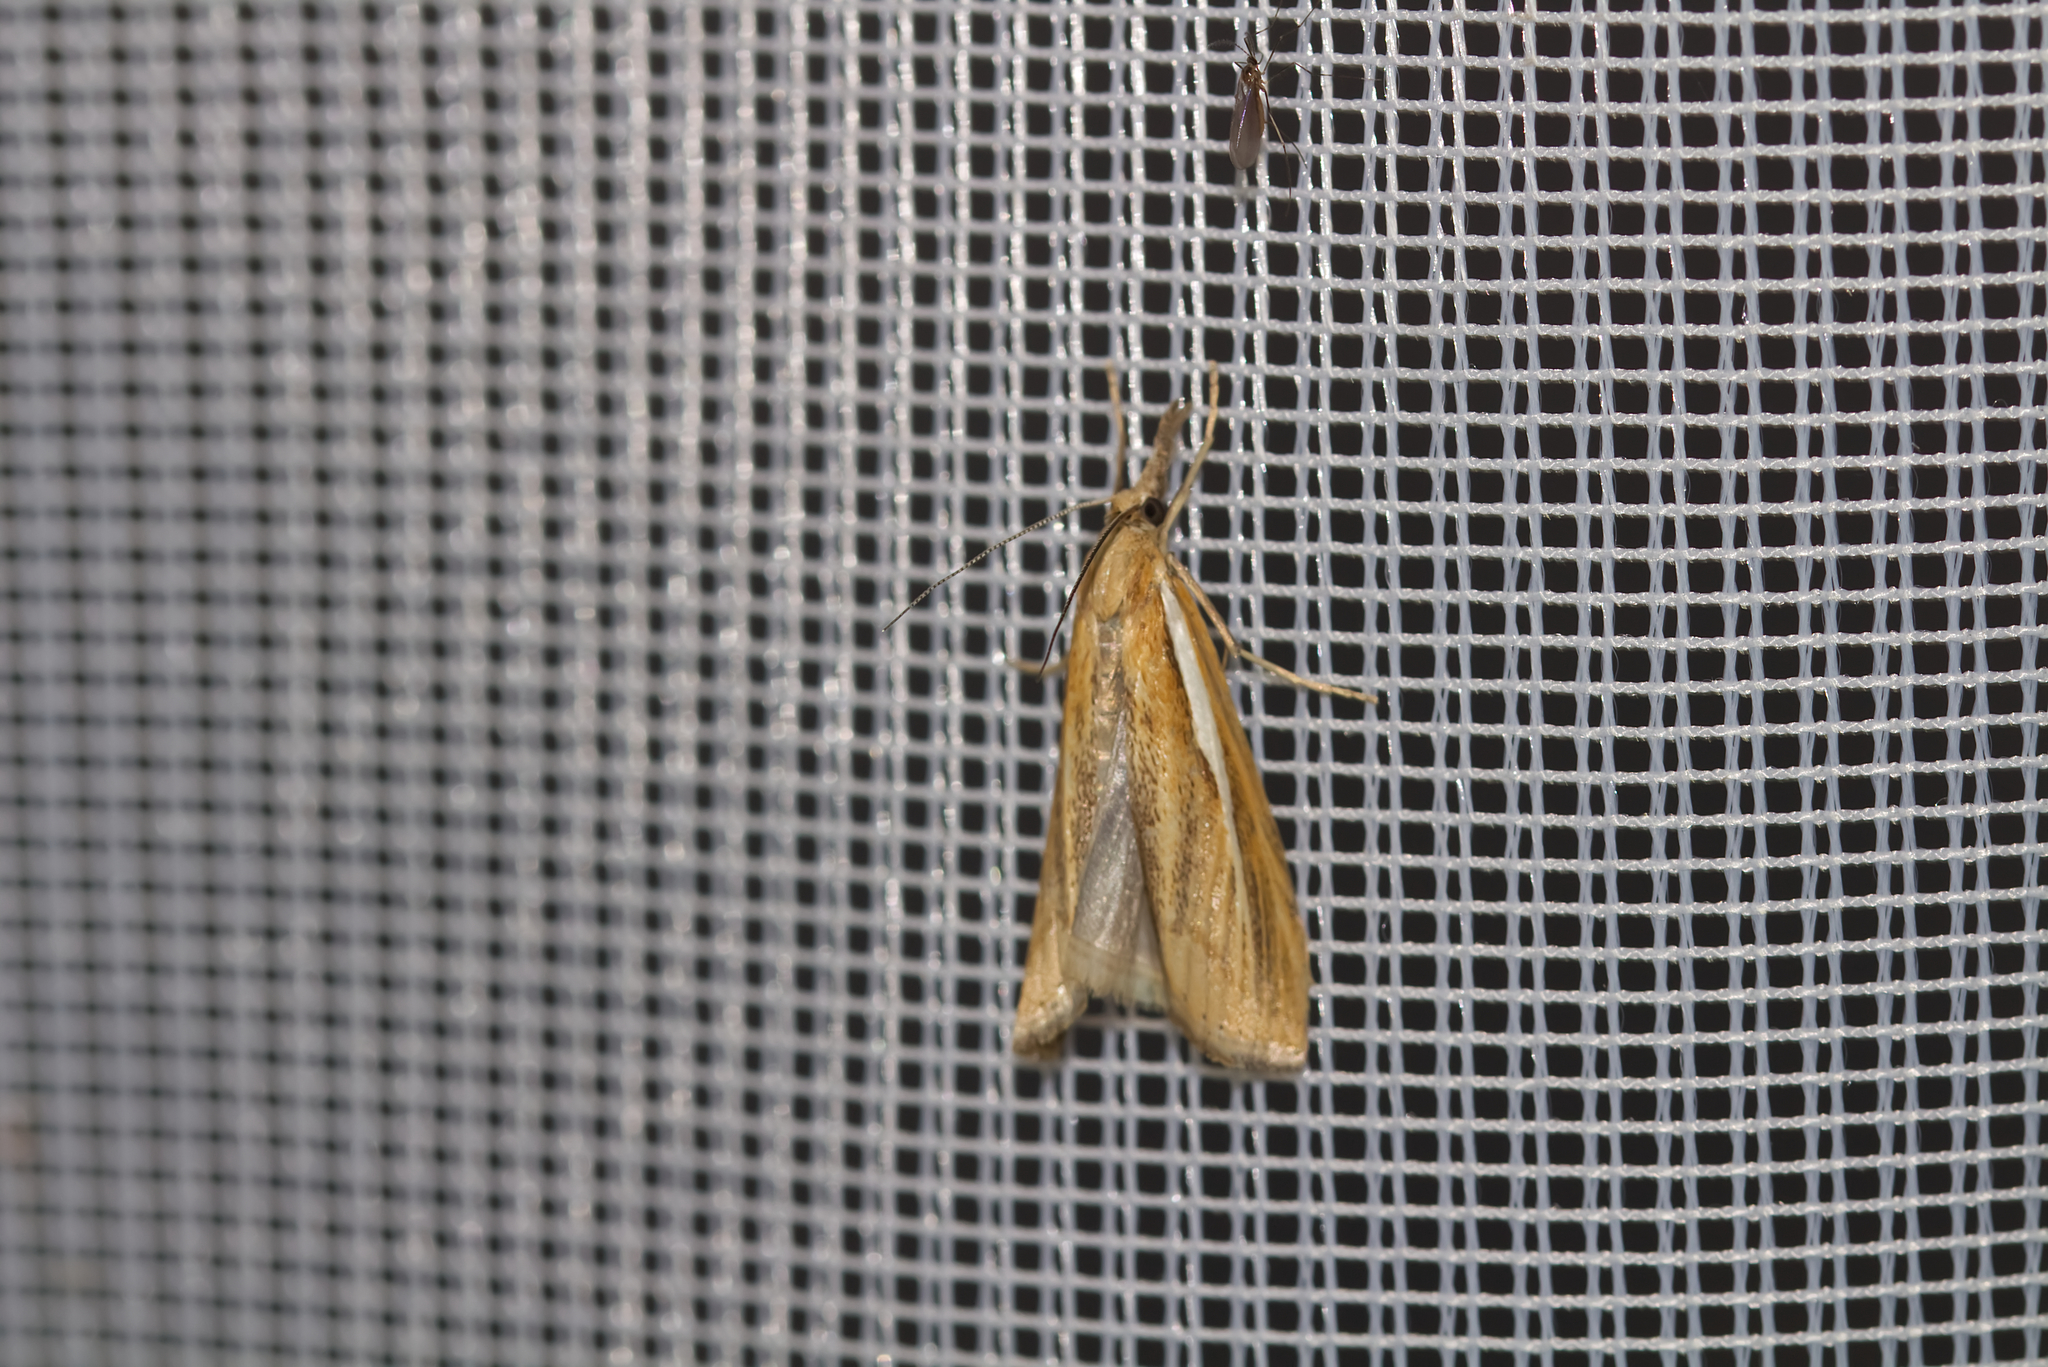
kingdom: Animalia
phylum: Arthropoda
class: Insecta
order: Lepidoptera
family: Crambidae
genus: Agriphila
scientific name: Agriphila tristellus
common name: Common grass-veneer
